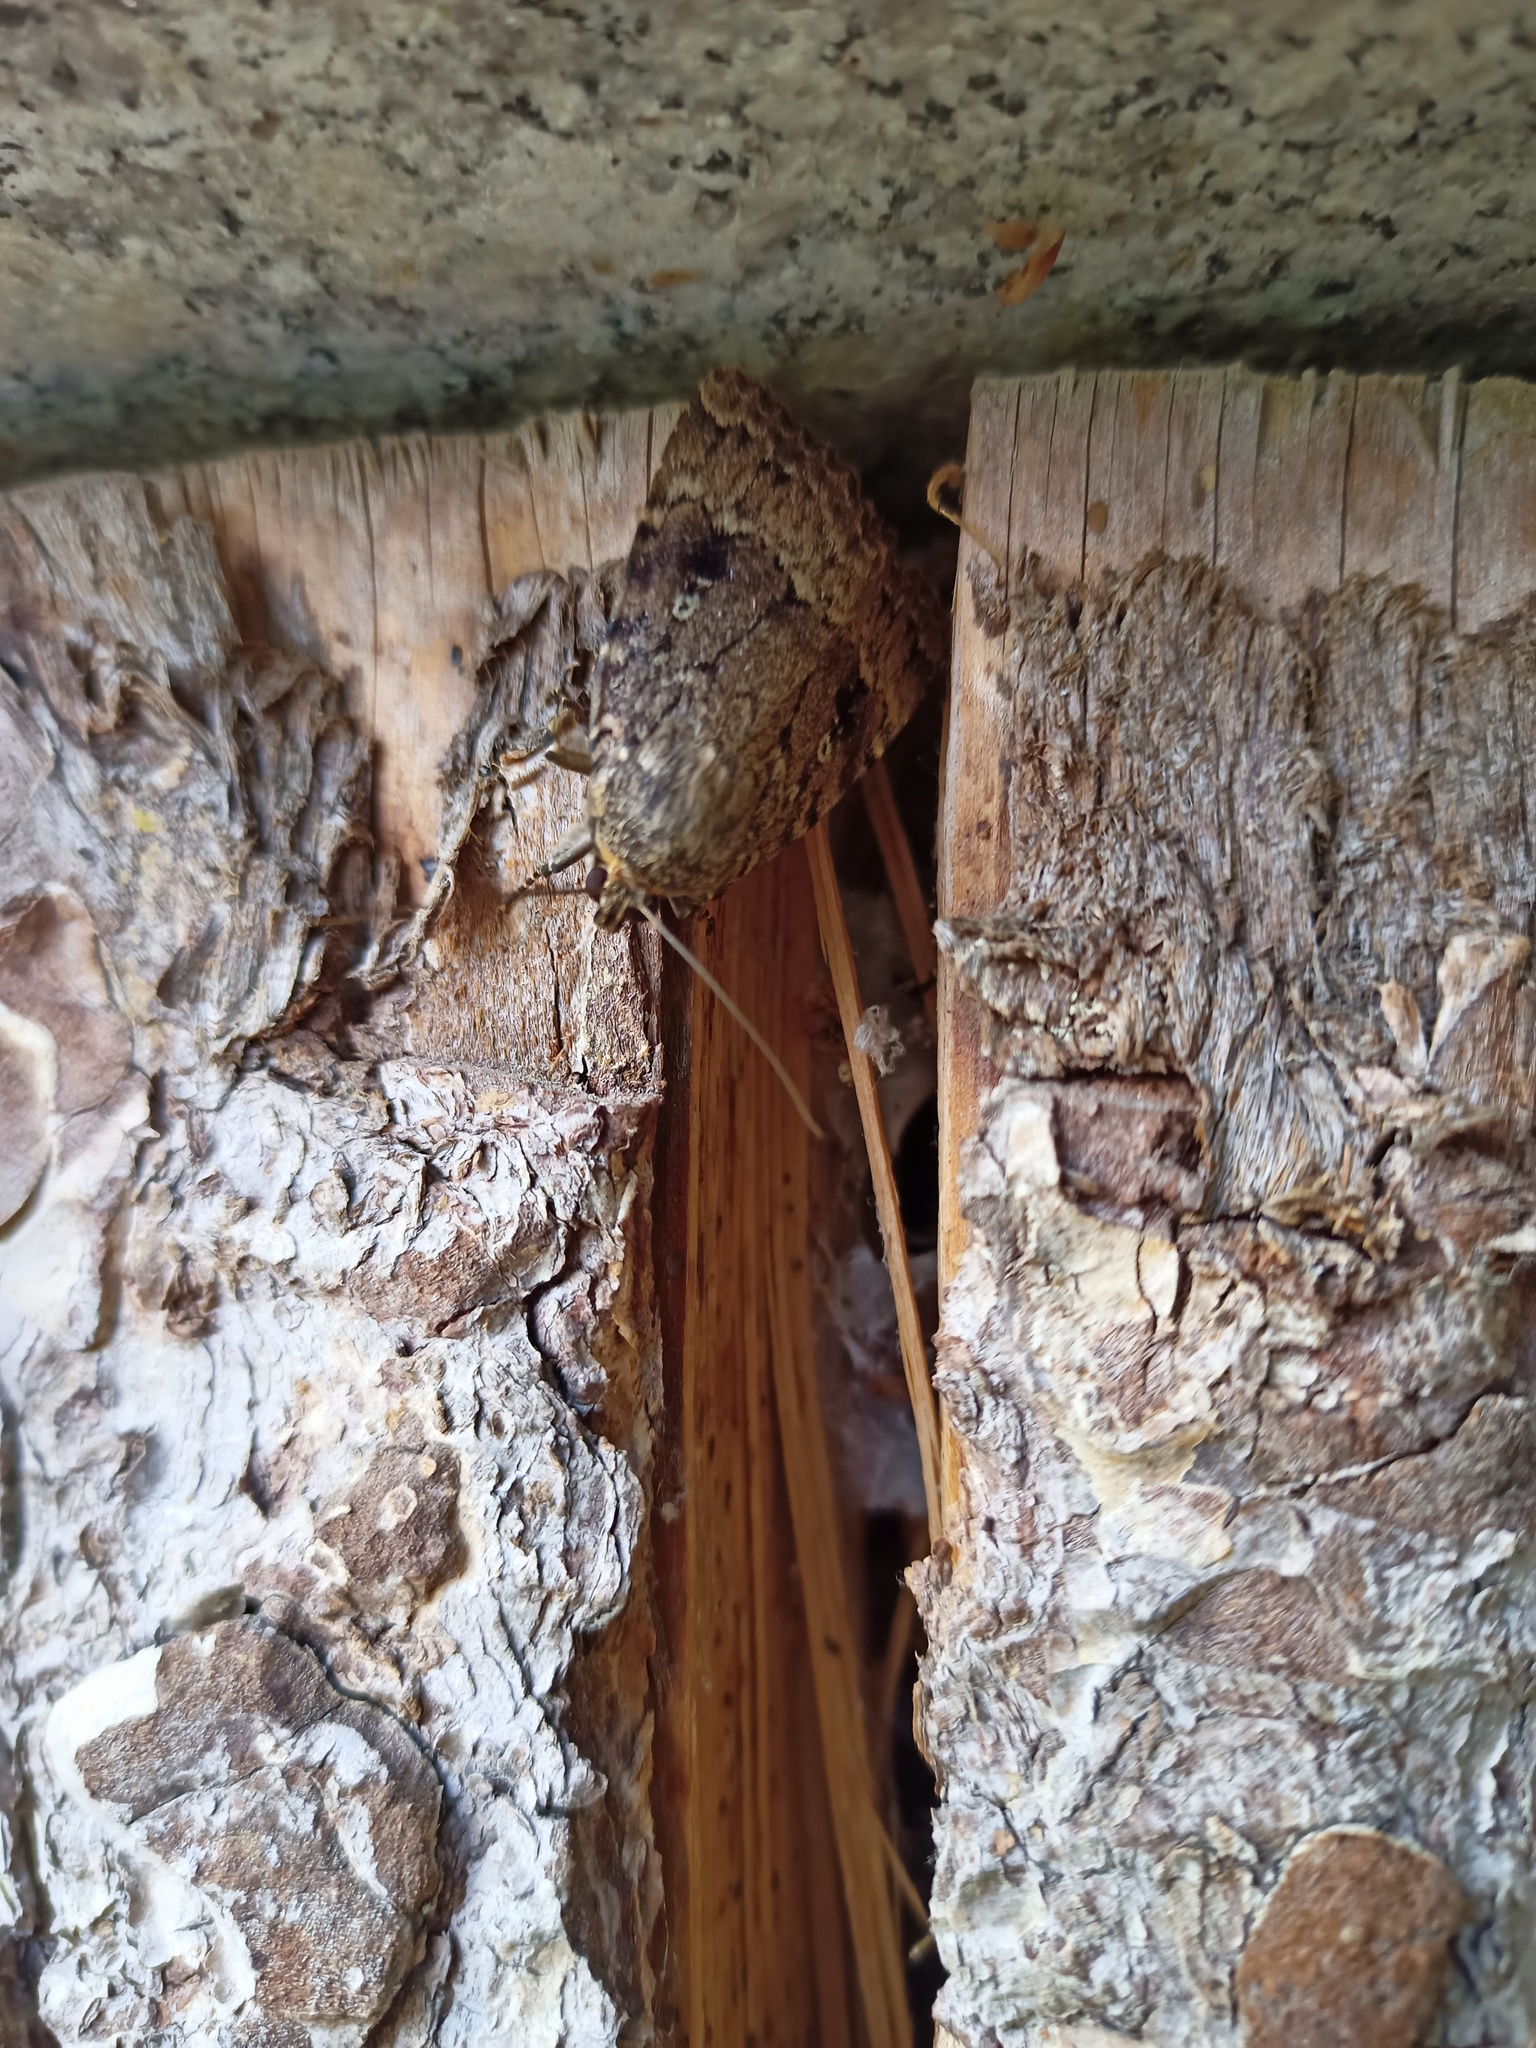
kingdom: Animalia
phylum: Arthropoda
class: Insecta
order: Lepidoptera
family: Noctuidae
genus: Amphipyra
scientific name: Amphipyra pyramidea
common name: Copper underwing
